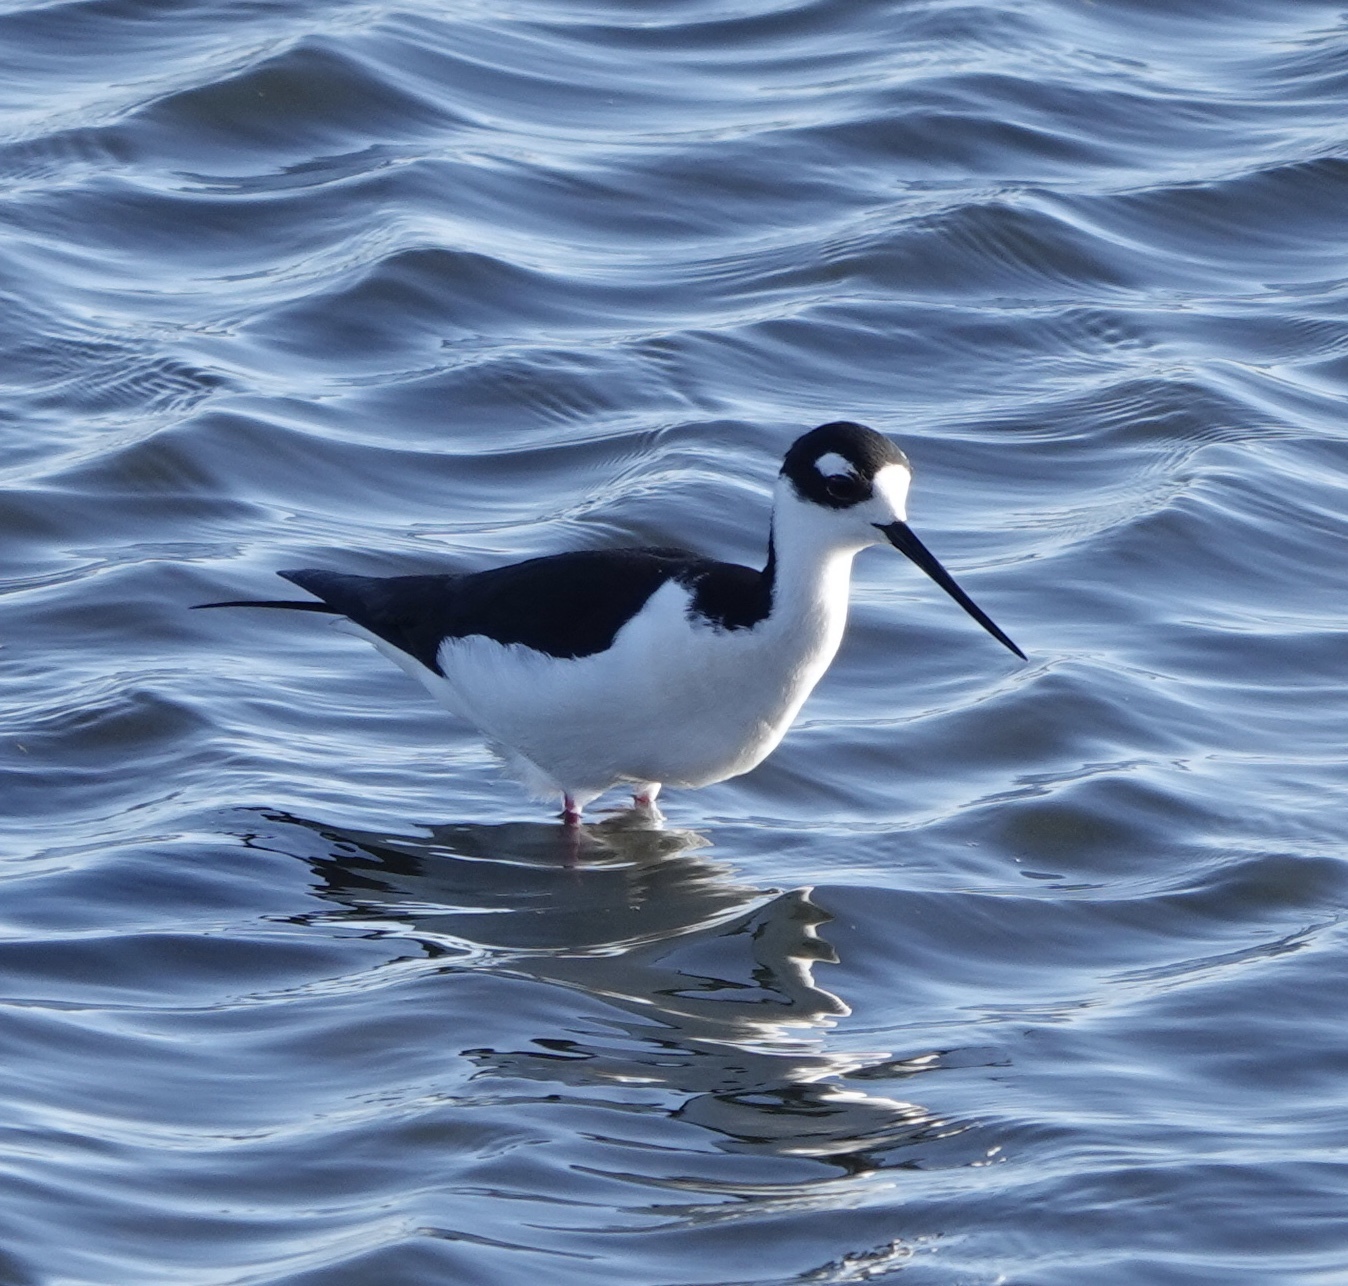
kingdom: Animalia
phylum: Chordata
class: Aves
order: Charadriiformes
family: Recurvirostridae
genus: Himantopus
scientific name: Himantopus mexicanus
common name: Black-necked stilt
